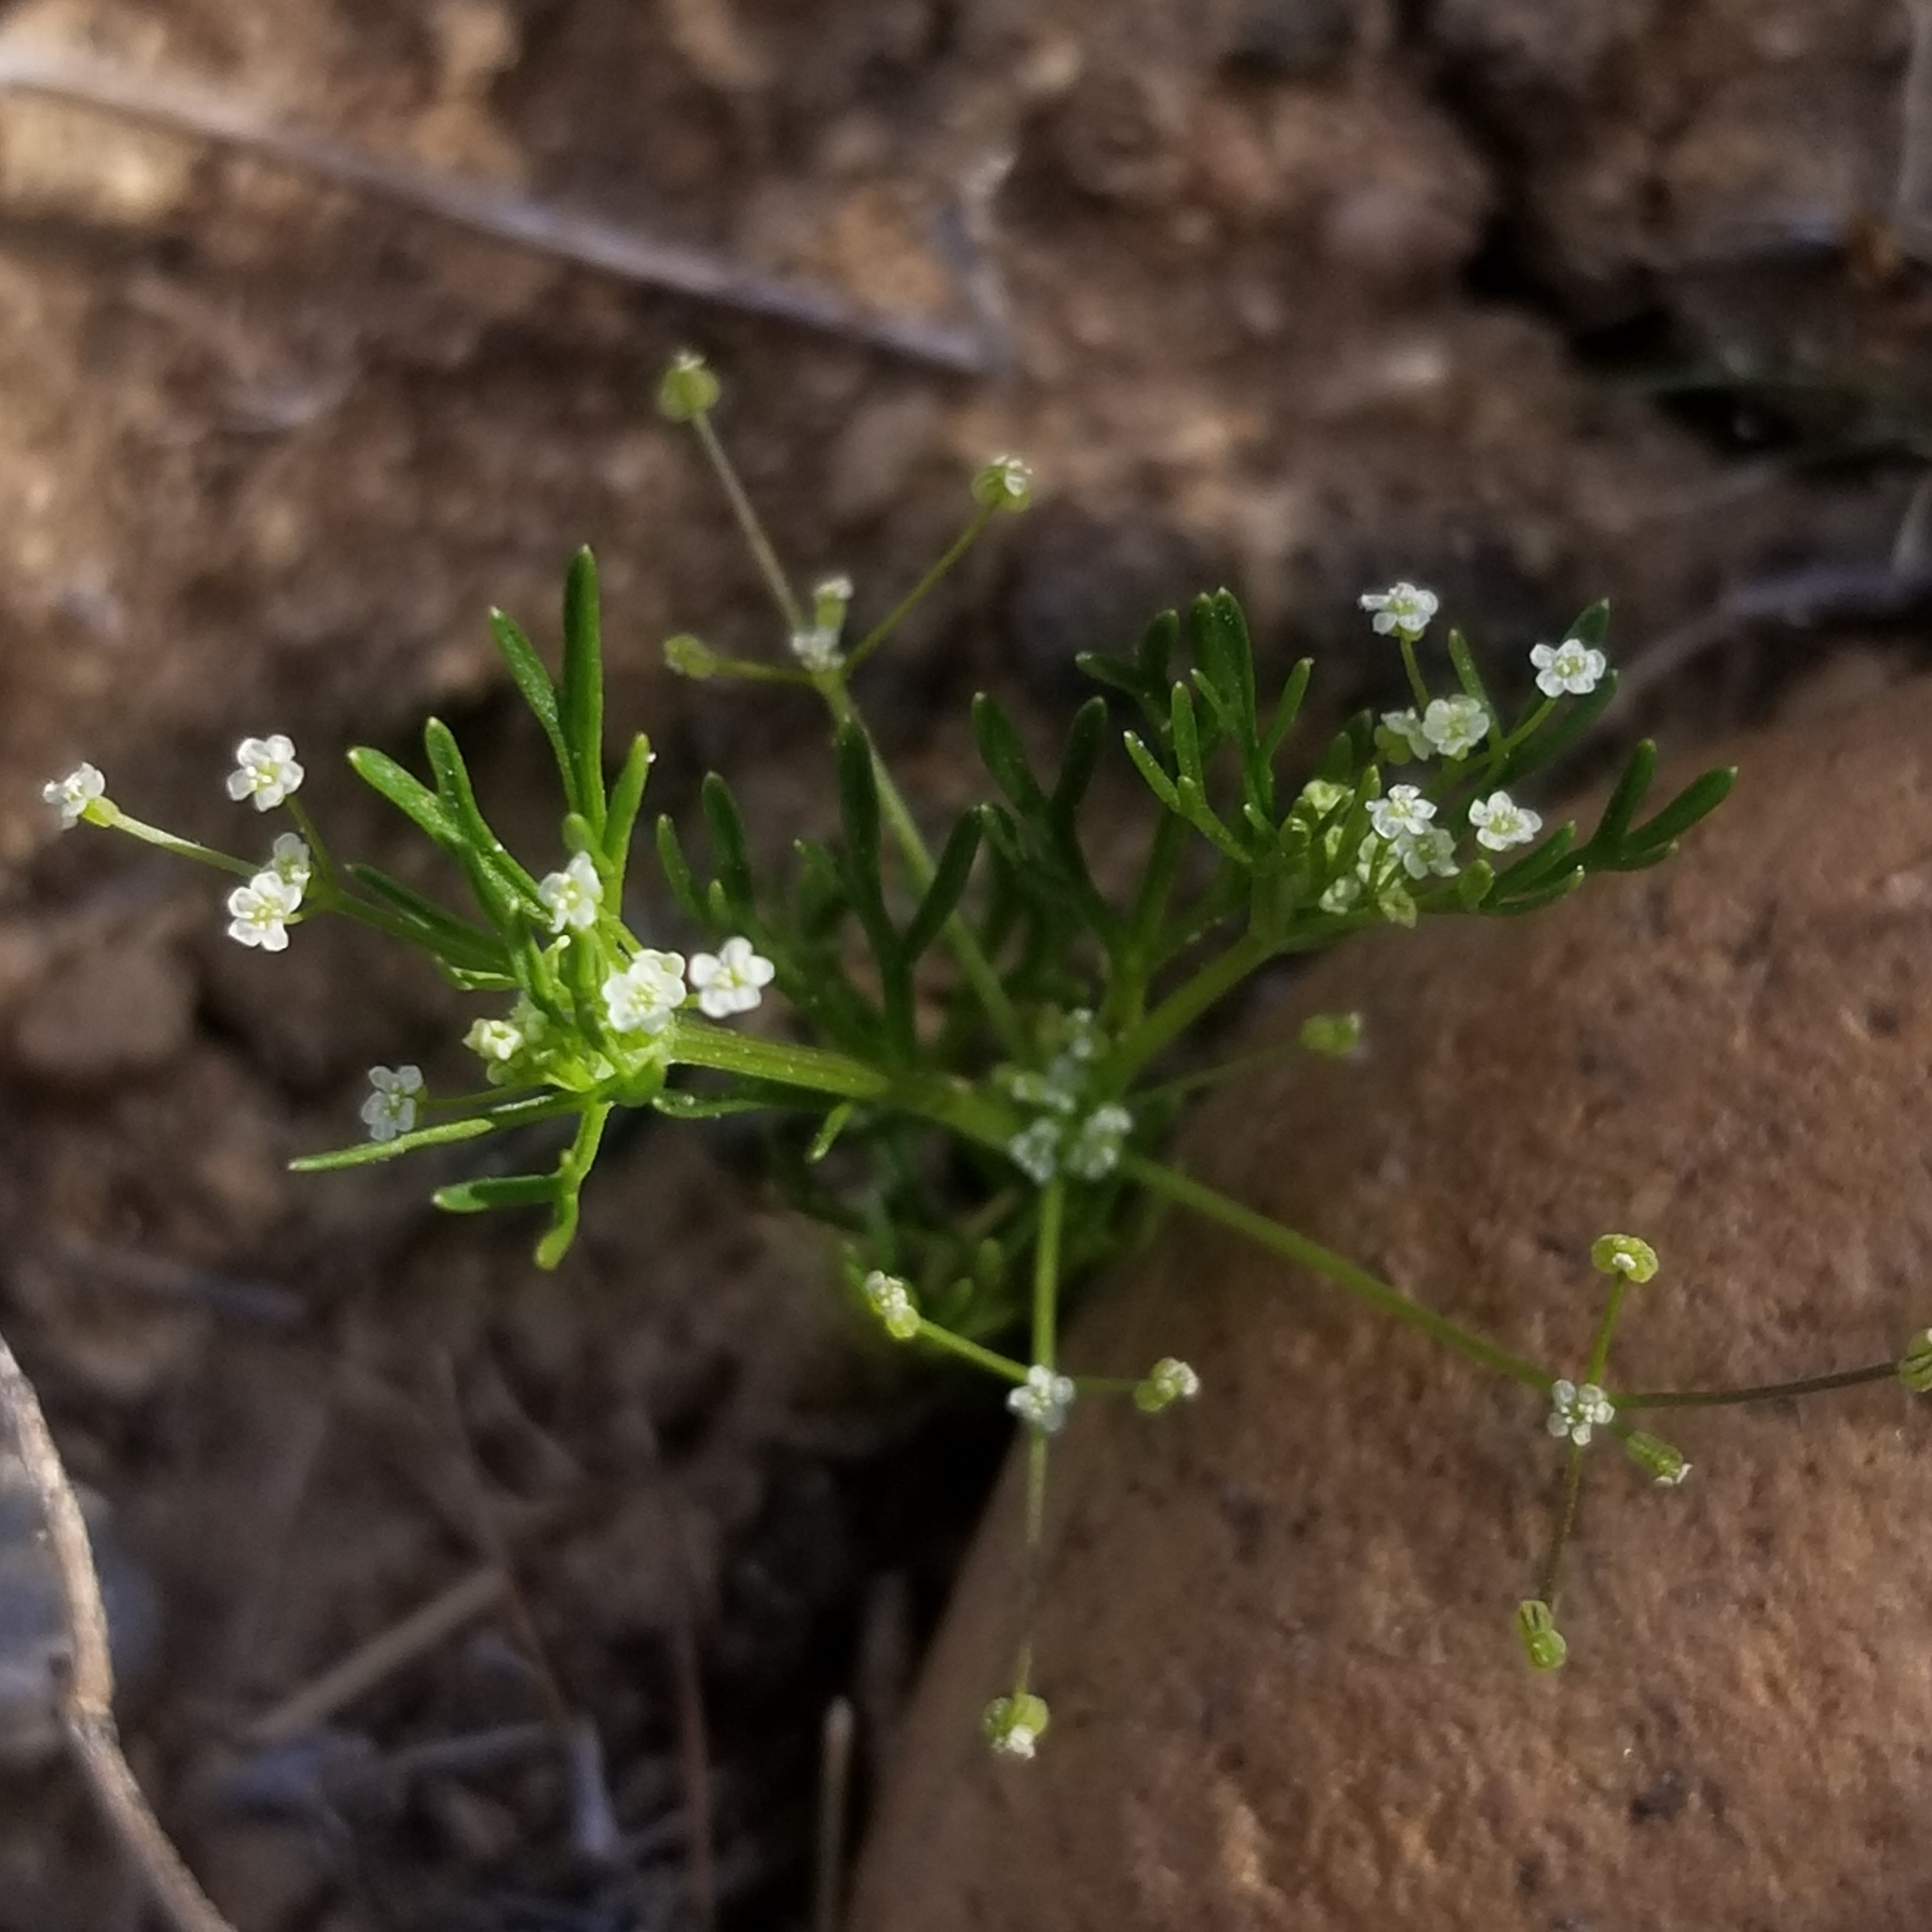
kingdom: Plantae
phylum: Tracheophyta
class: Magnoliopsida
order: Apiales
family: Apiaceae
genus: Apiastrum
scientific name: Apiastrum angustifolium
